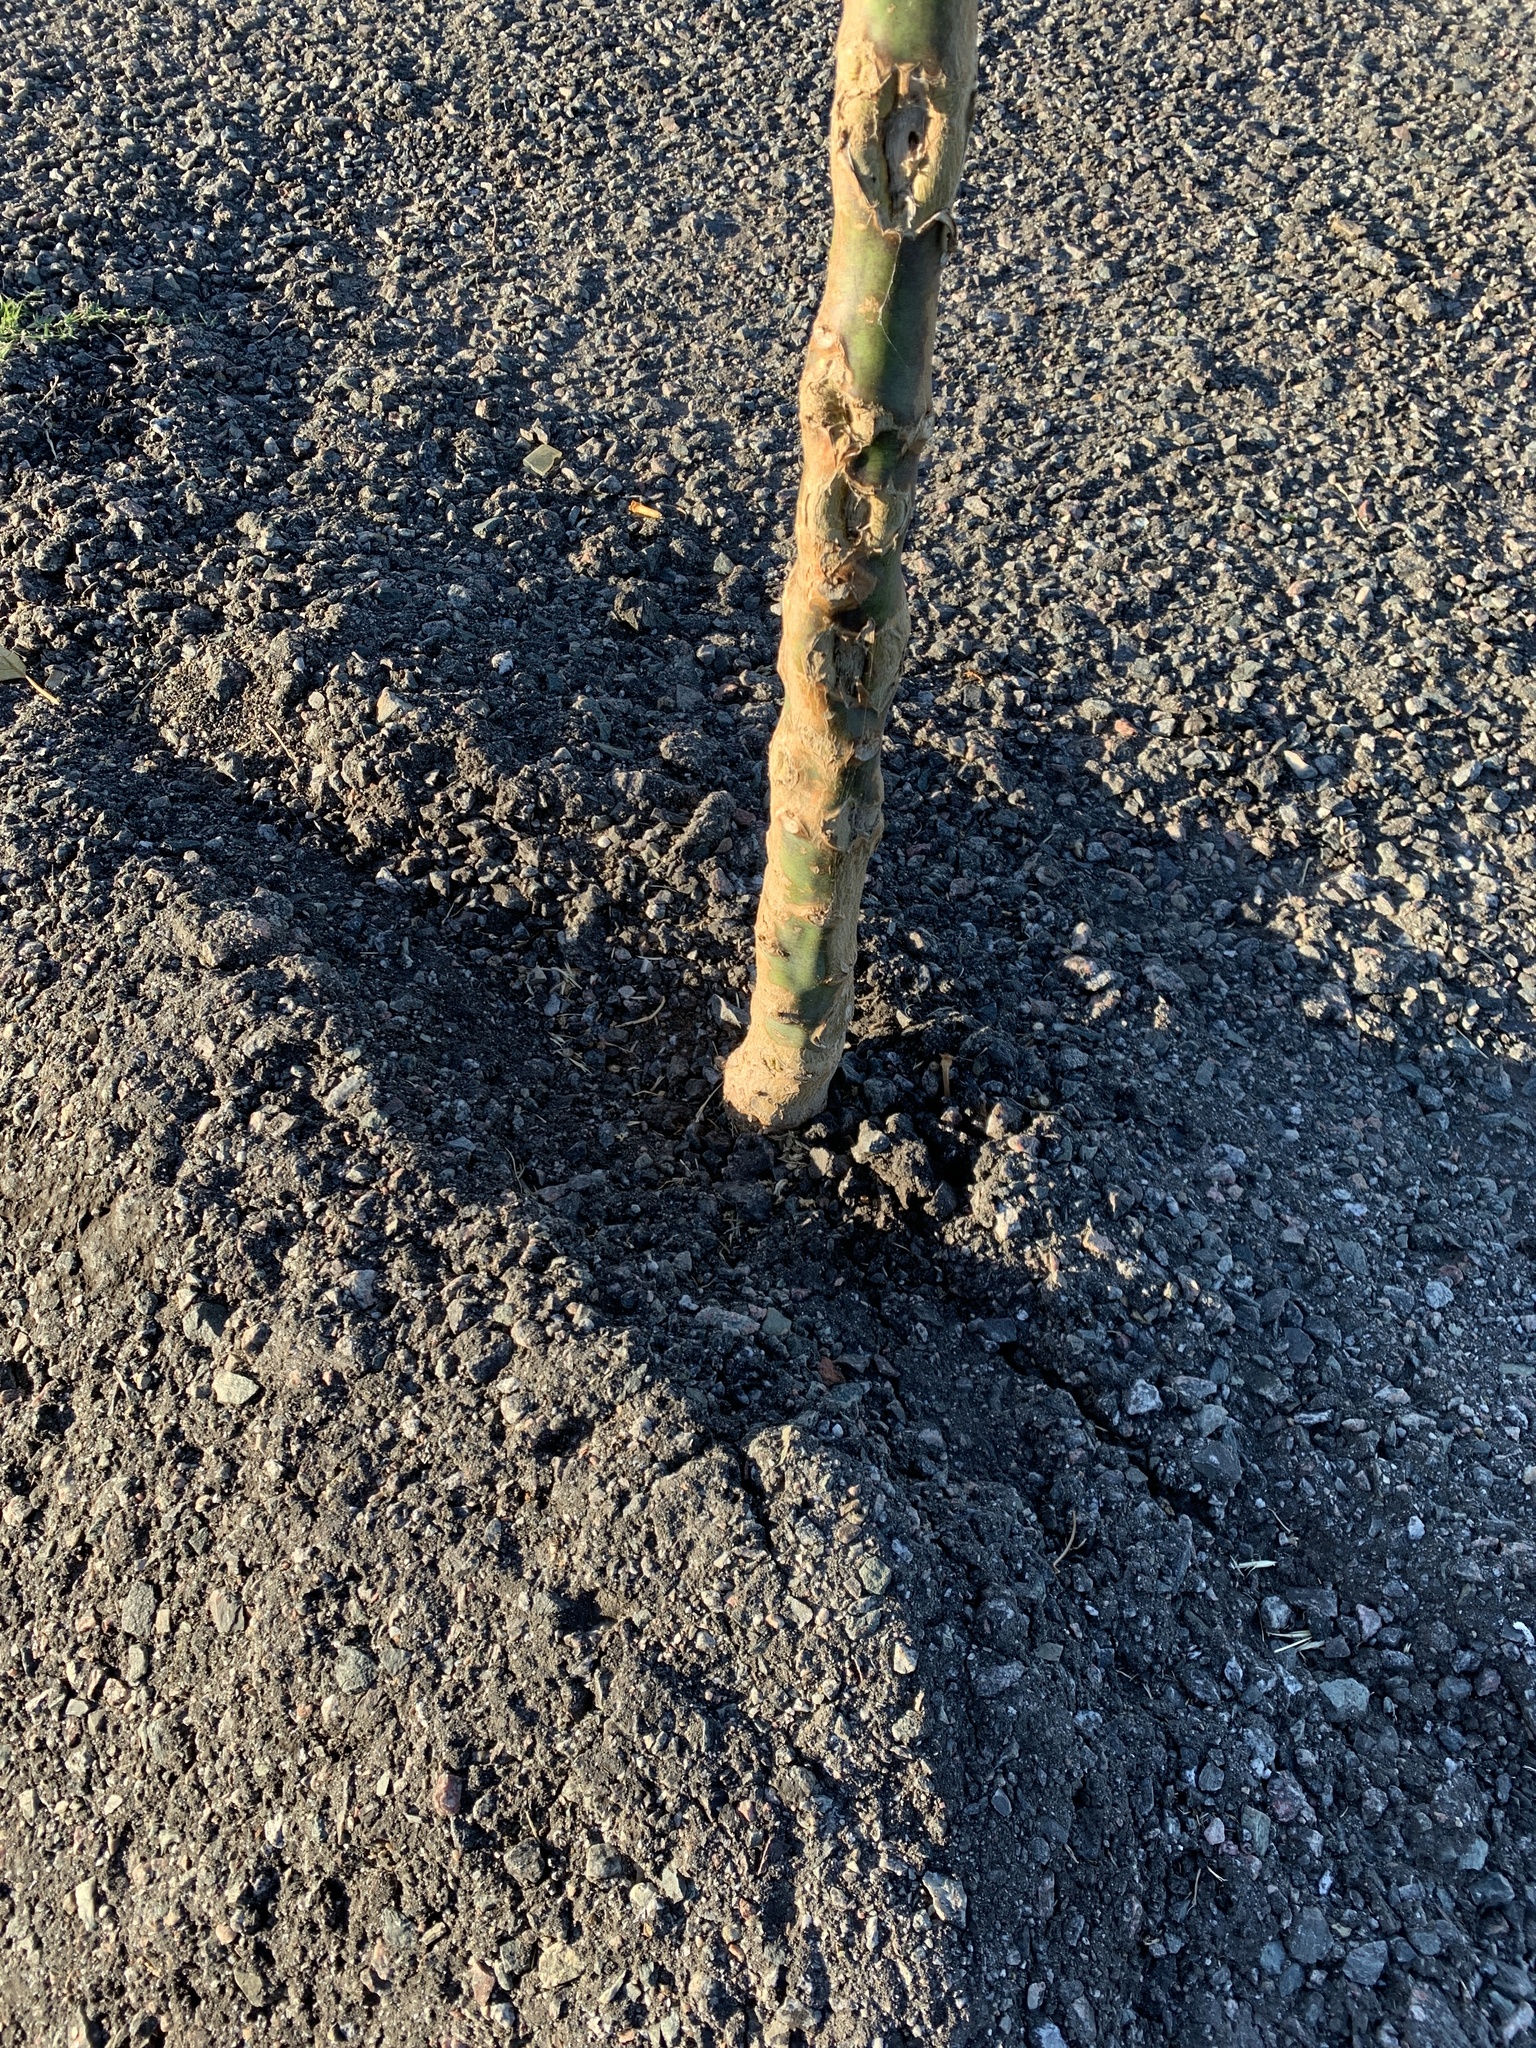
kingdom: Plantae
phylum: Tracheophyta
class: Magnoliopsida
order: Solanales
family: Solanaceae
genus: Nicotiana
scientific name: Nicotiana glauca
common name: Tree tobacco
